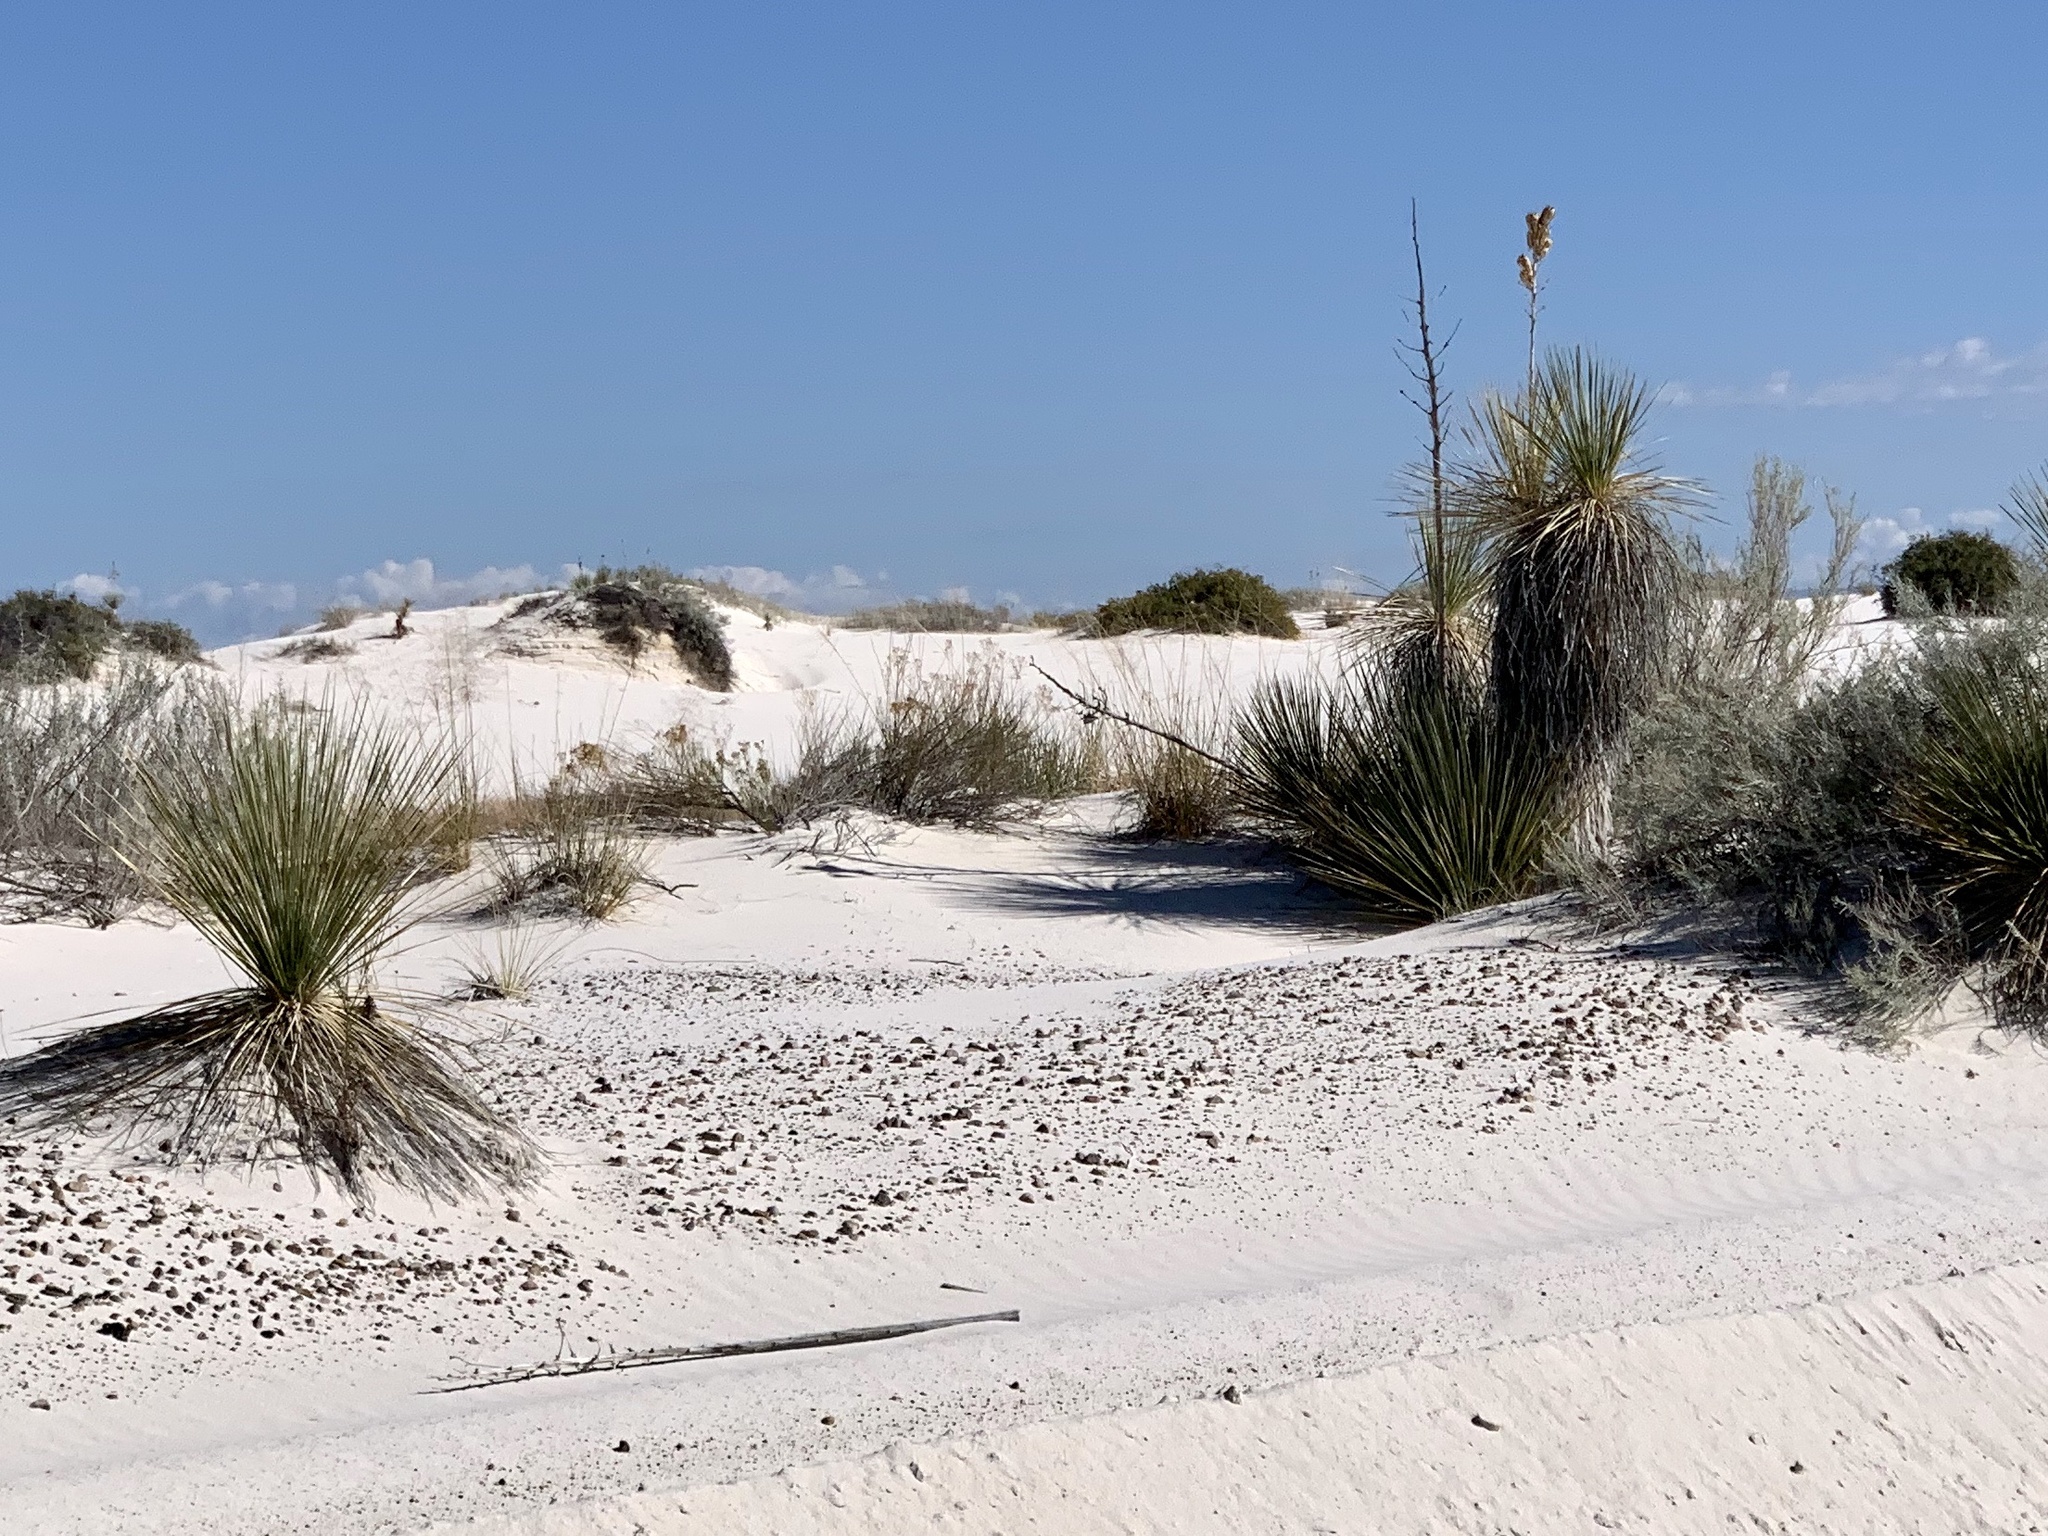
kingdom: Plantae
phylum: Tracheophyta
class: Liliopsida
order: Asparagales
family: Asparagaceae
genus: Yucca
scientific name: Yucca elata
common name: Palmella
